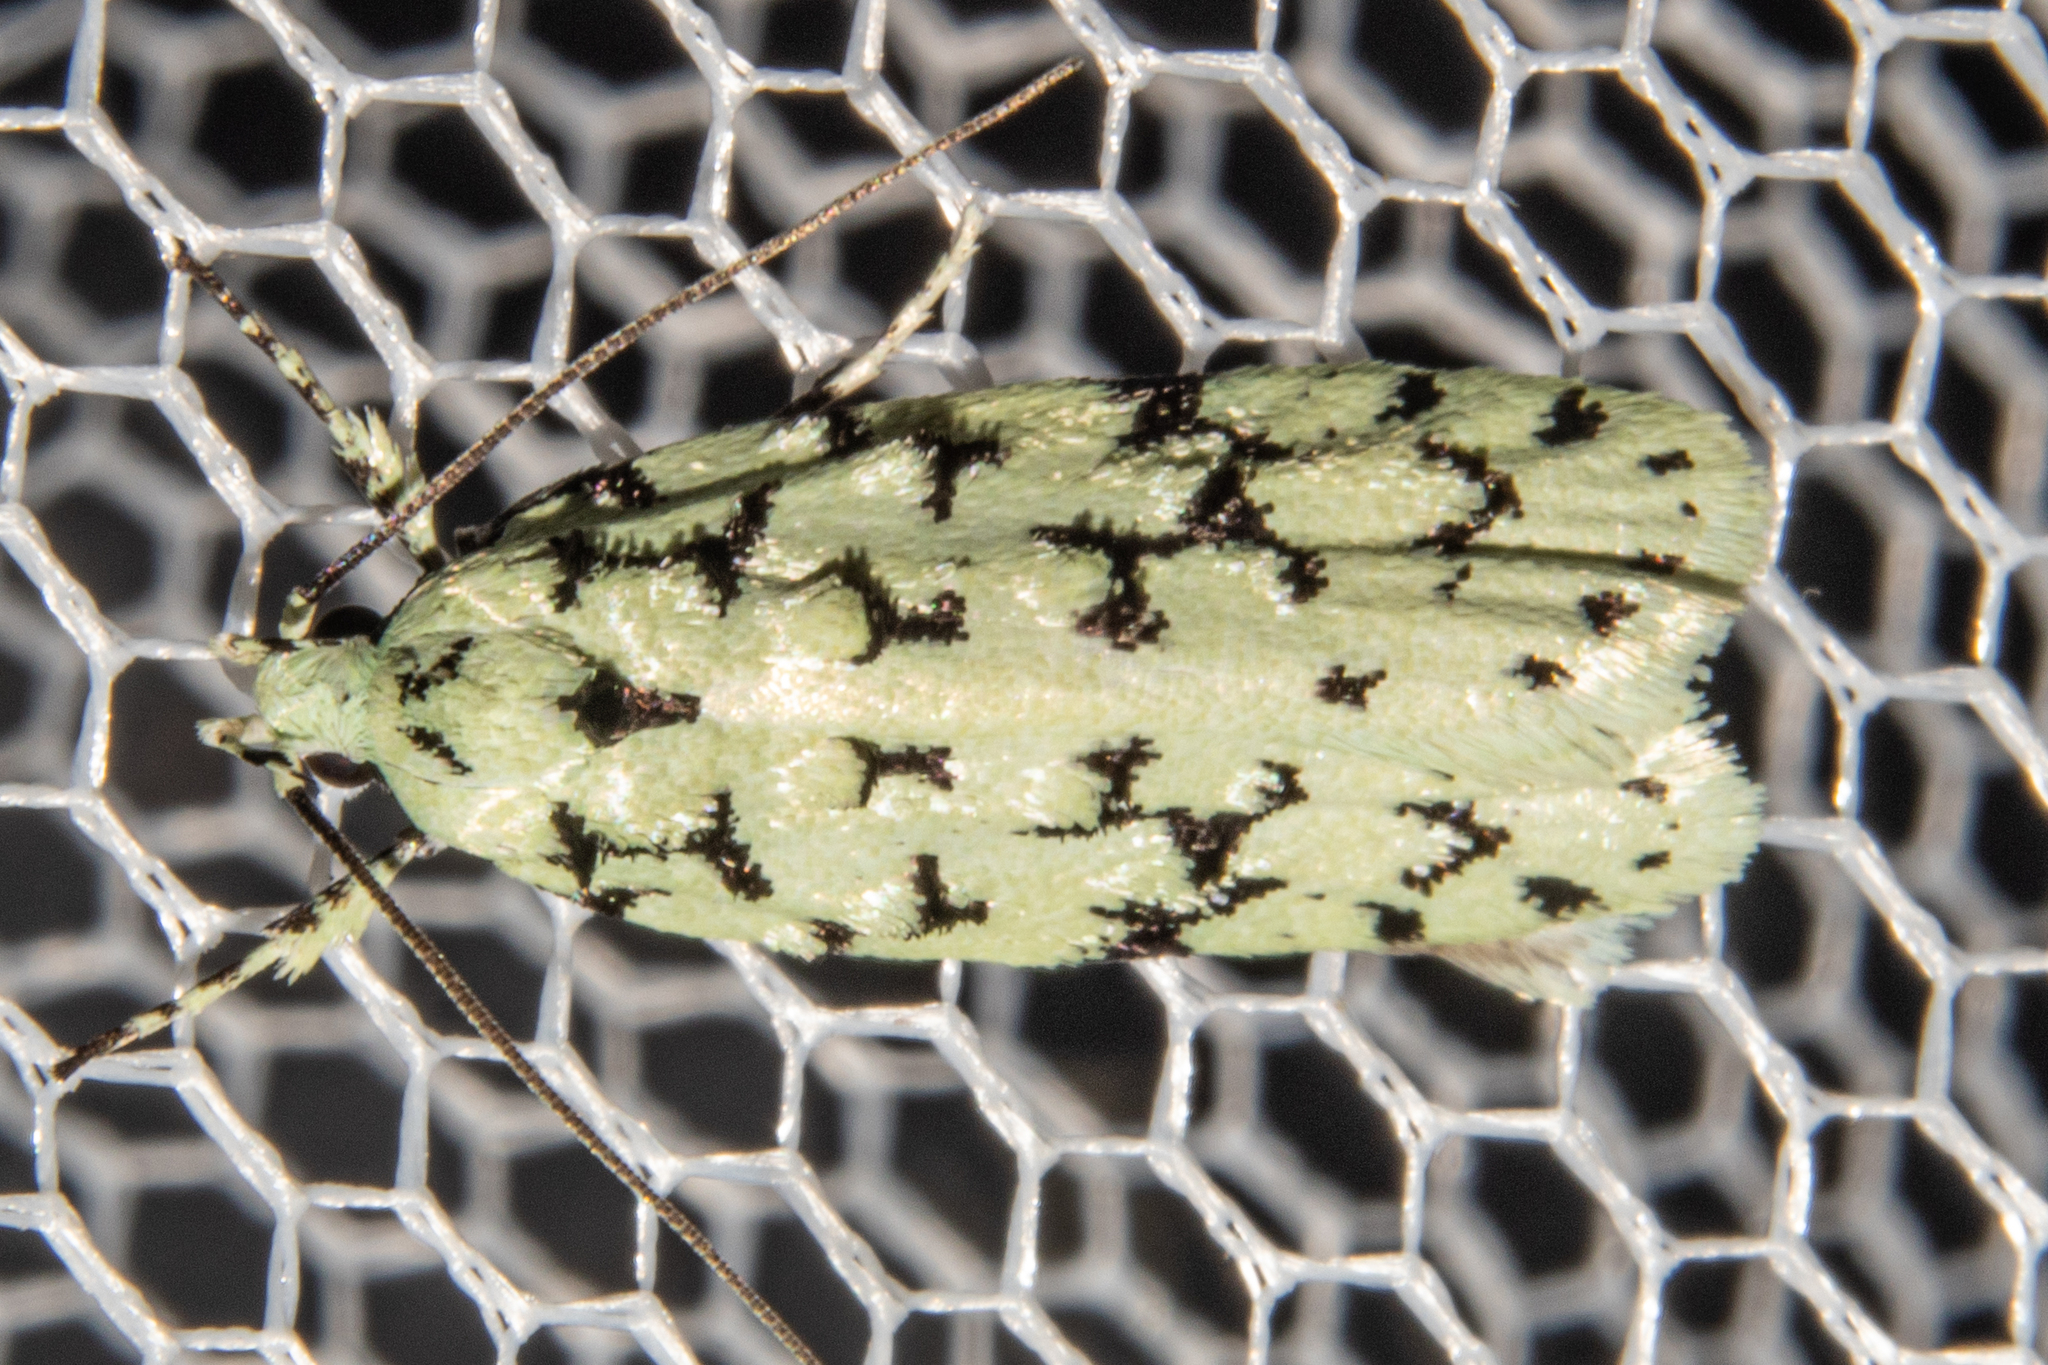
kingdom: Animalia
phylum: Arthropoda
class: Insecta
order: Lepidoptera
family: Oecophoridae
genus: Izatha
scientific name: Izatha huttoni
